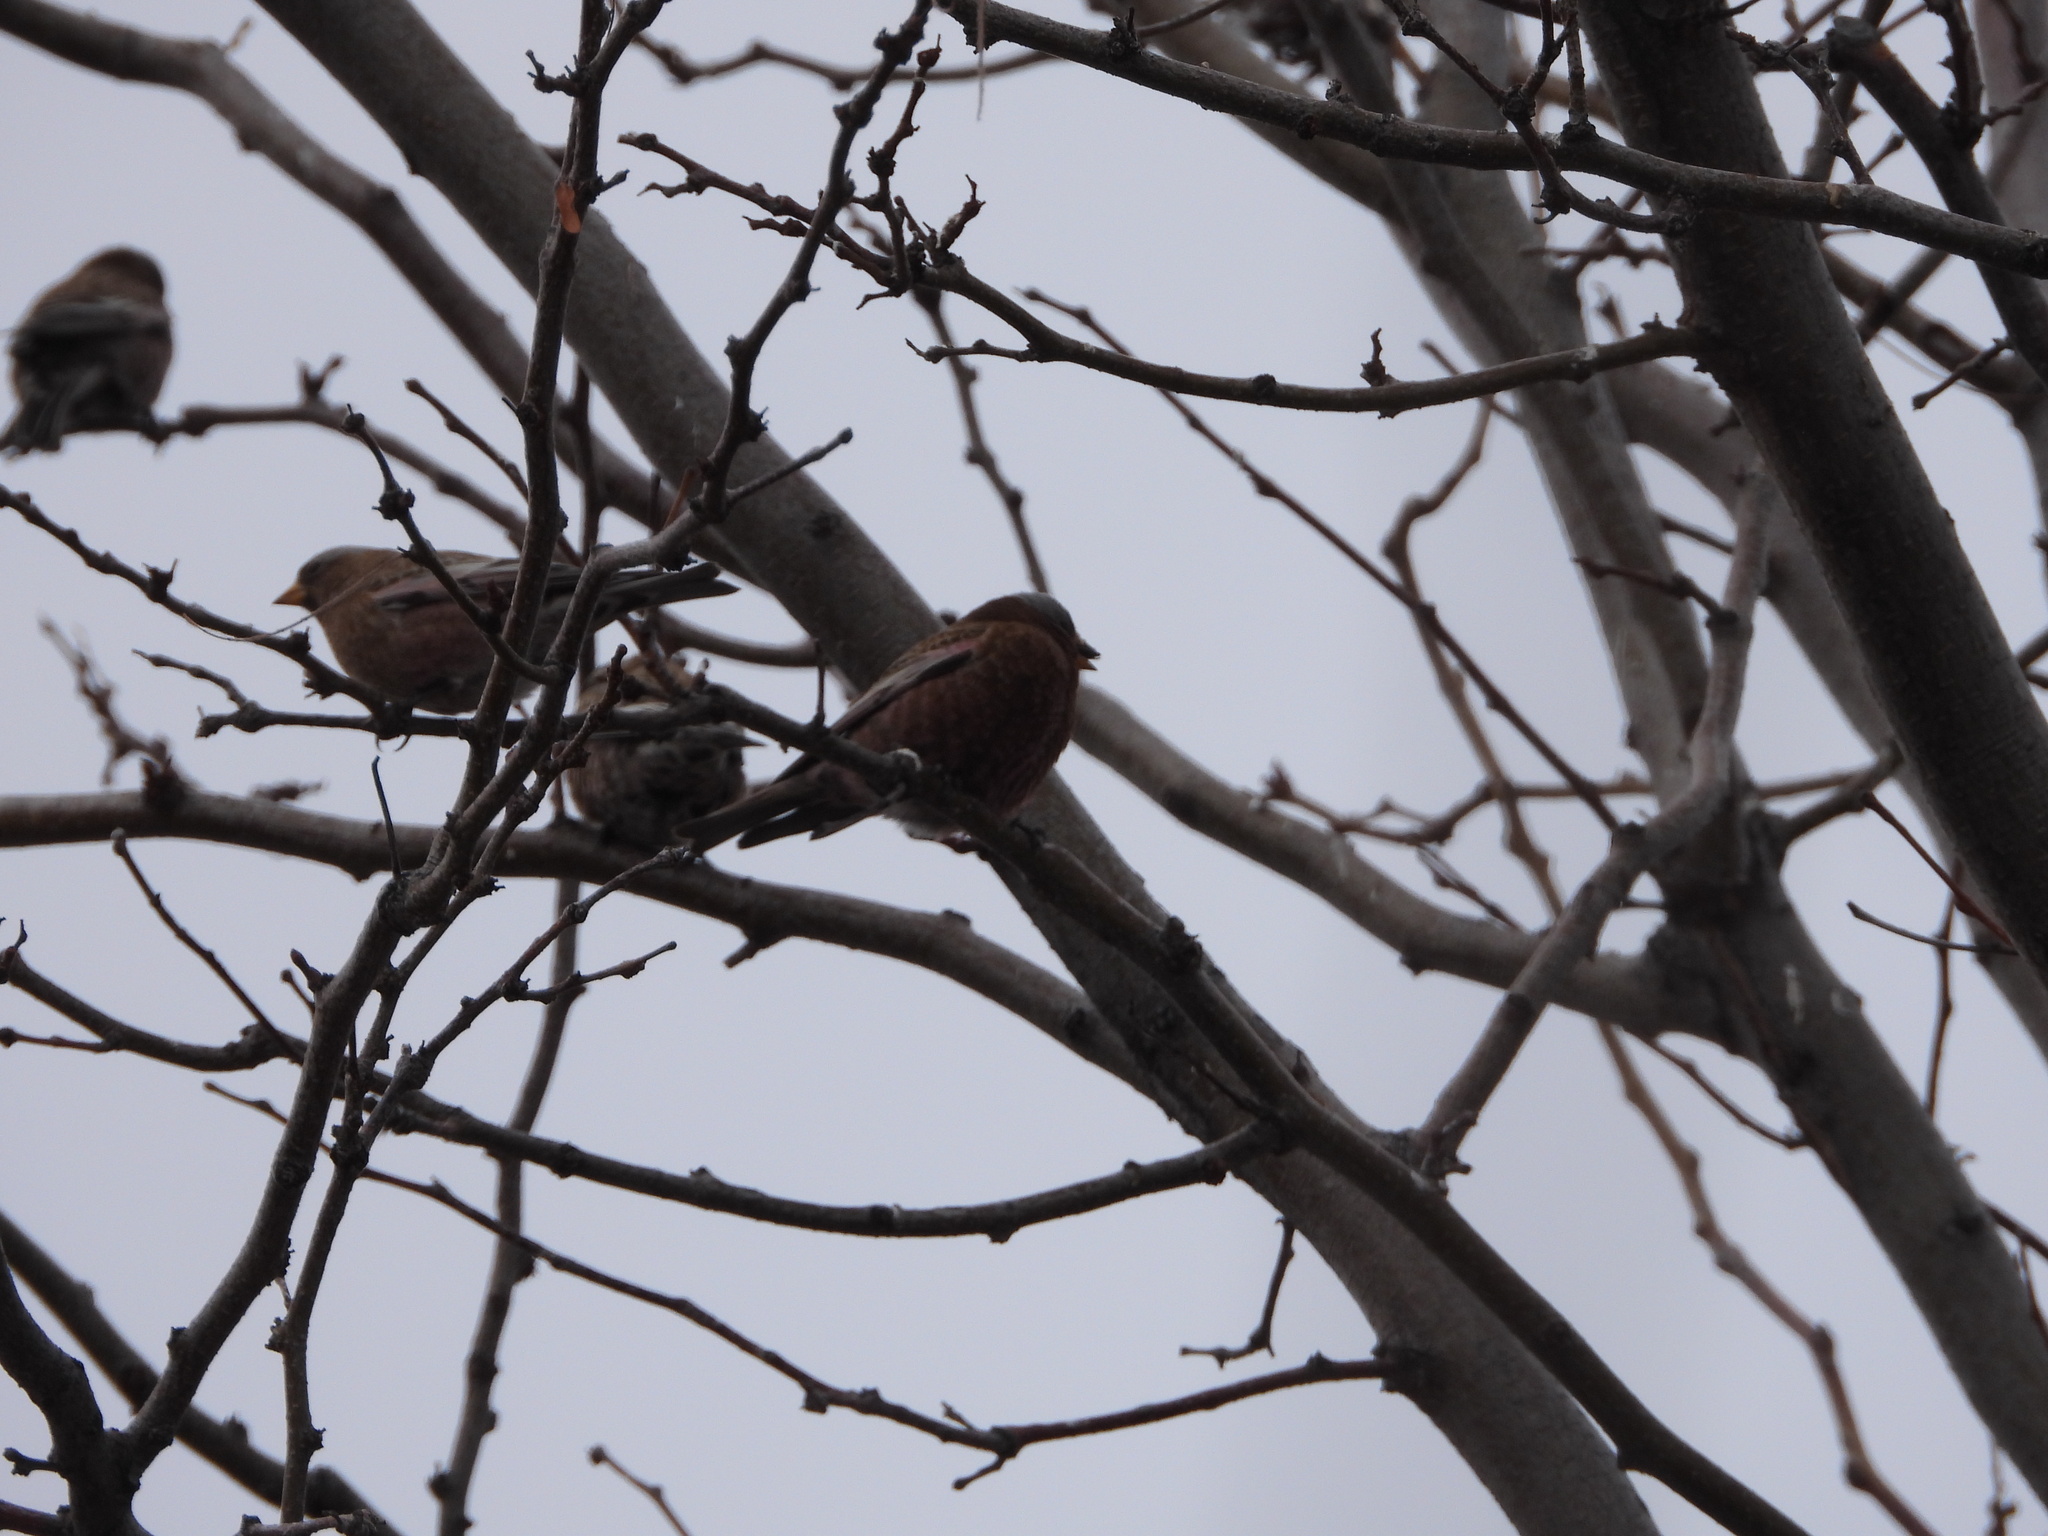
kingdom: Animalia
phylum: Chordata
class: Aves
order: Passeriformes
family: Fringillidae
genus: Leucosticte
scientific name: Leucosticte tephrocotis
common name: Gray-crowned rosy-finch
